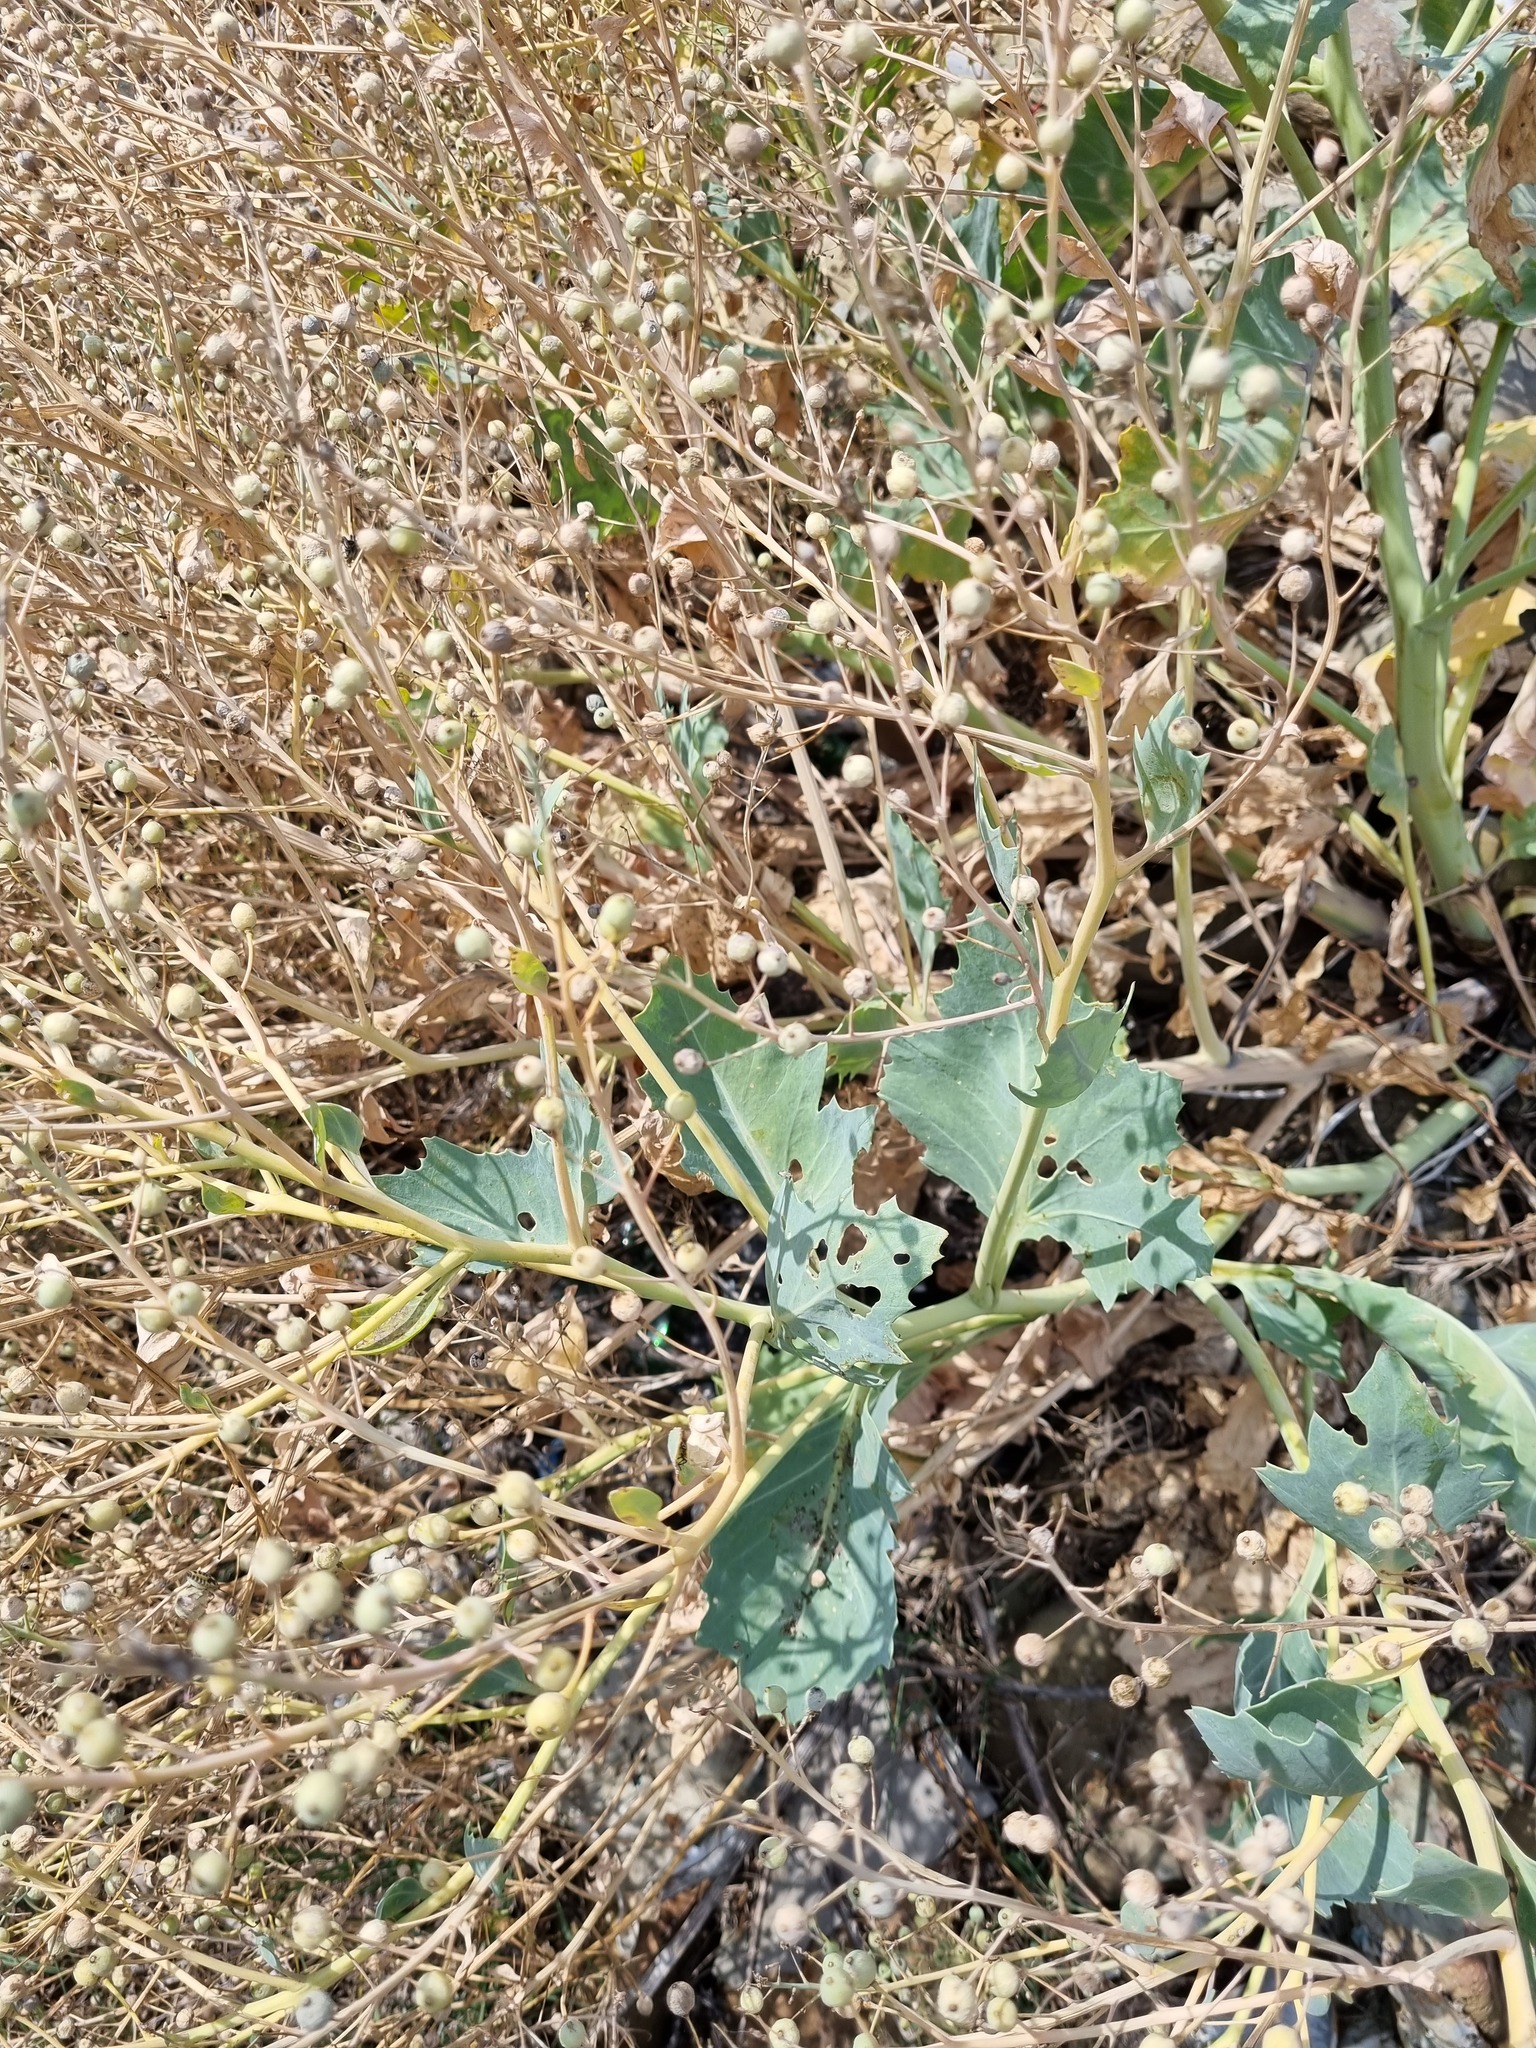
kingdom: Plantae
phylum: Tracheophyta
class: Magnoliopsida
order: Brassicales
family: Brassicaceae
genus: Crambe
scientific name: Crambe maritima
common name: Sea-kale
